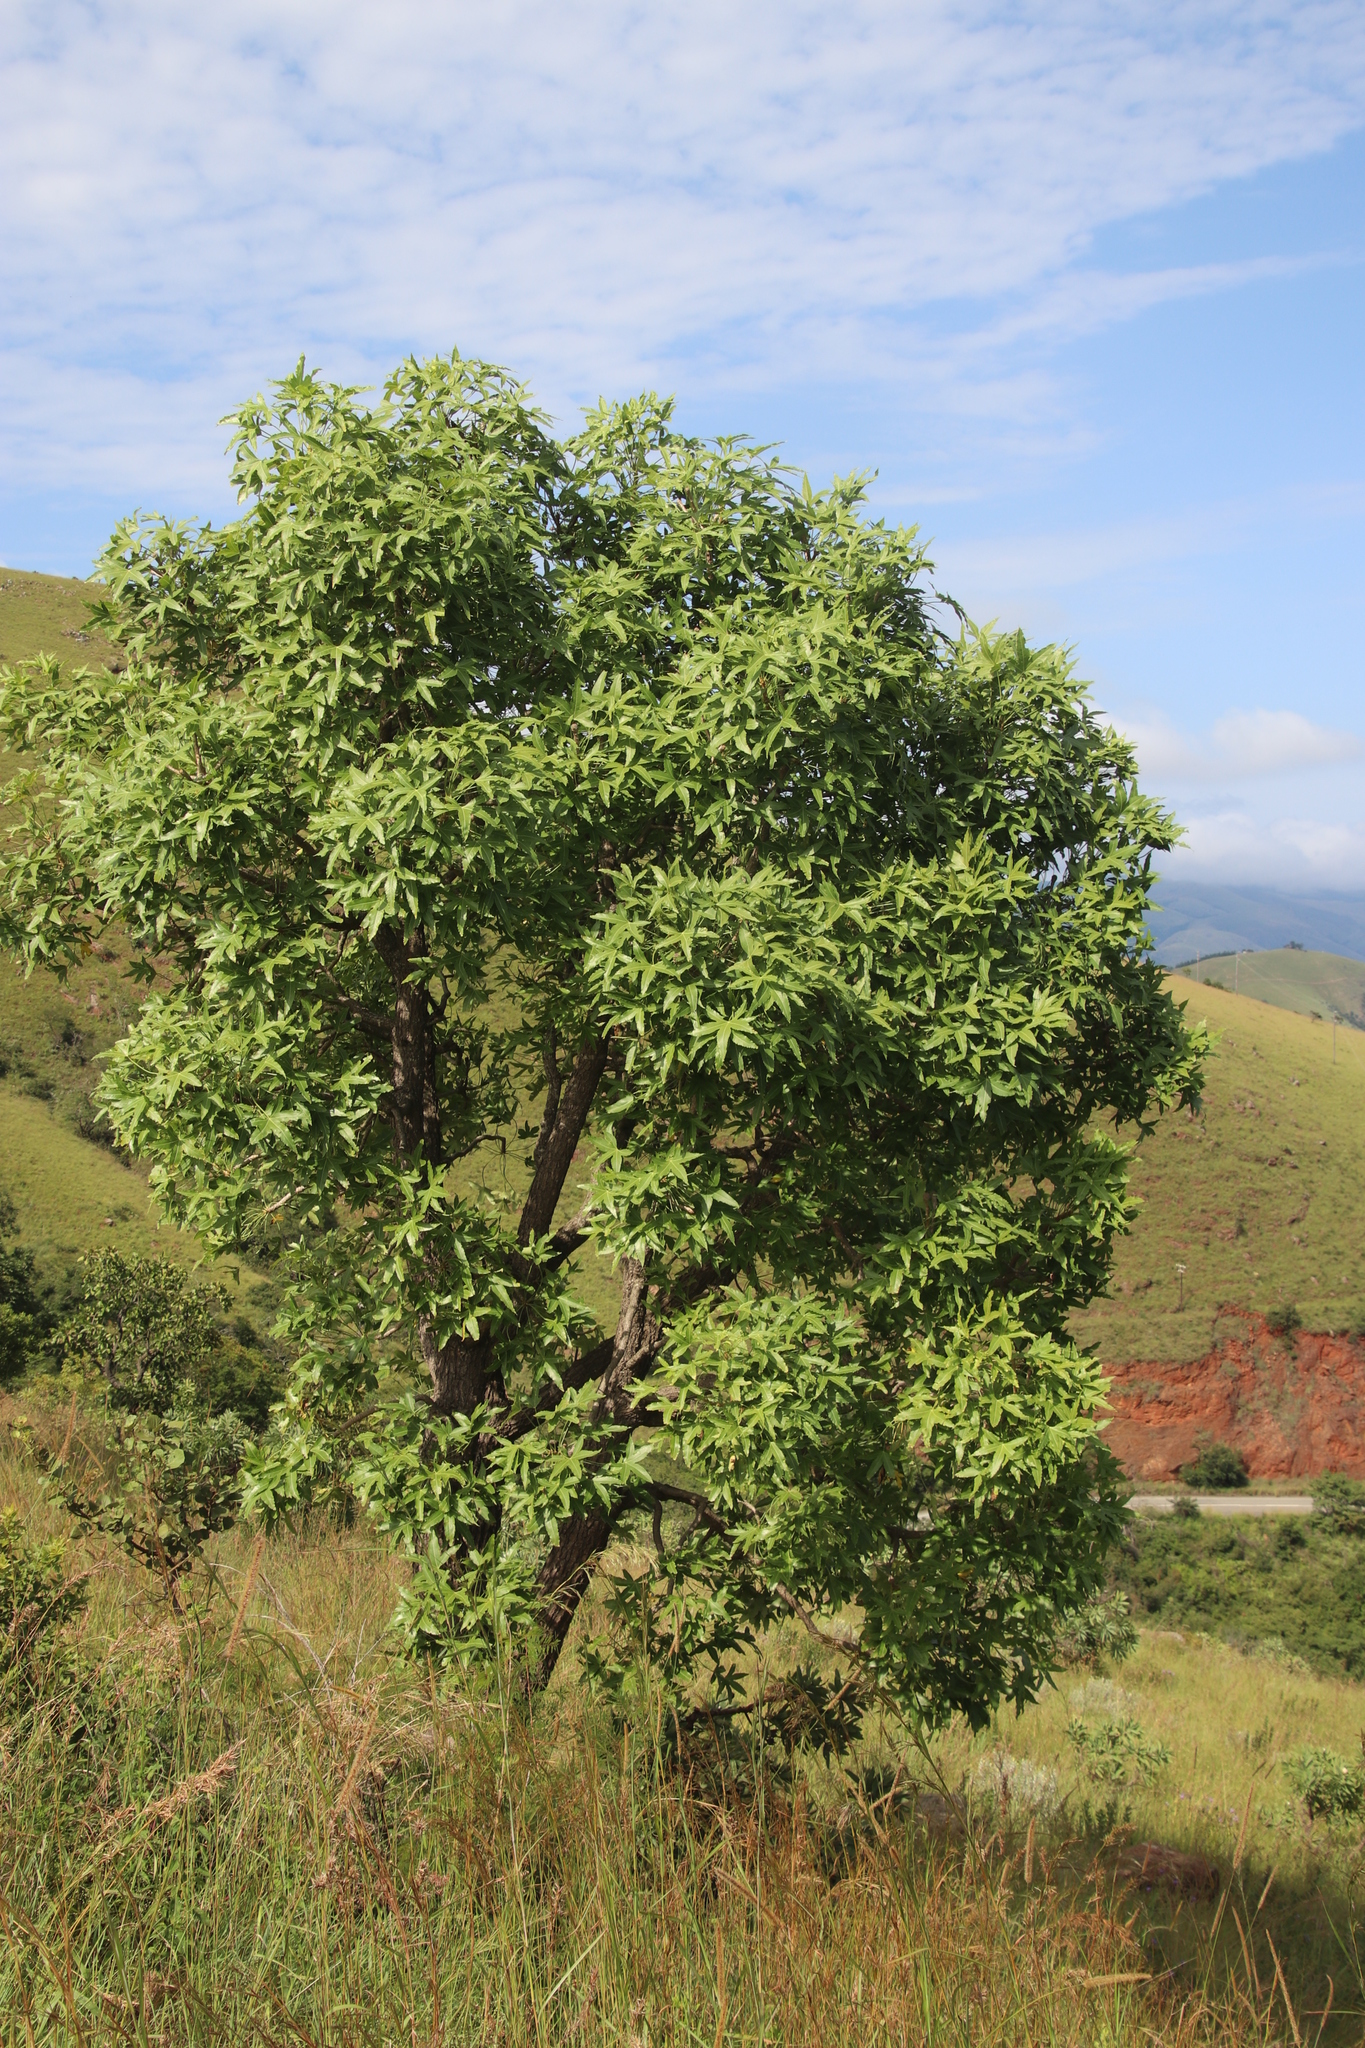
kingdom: Plantae
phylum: Tracheophyta
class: Magnoliopsida
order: Apiales
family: Araliaceae
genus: Cussonia
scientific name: Cussonia natalensis
